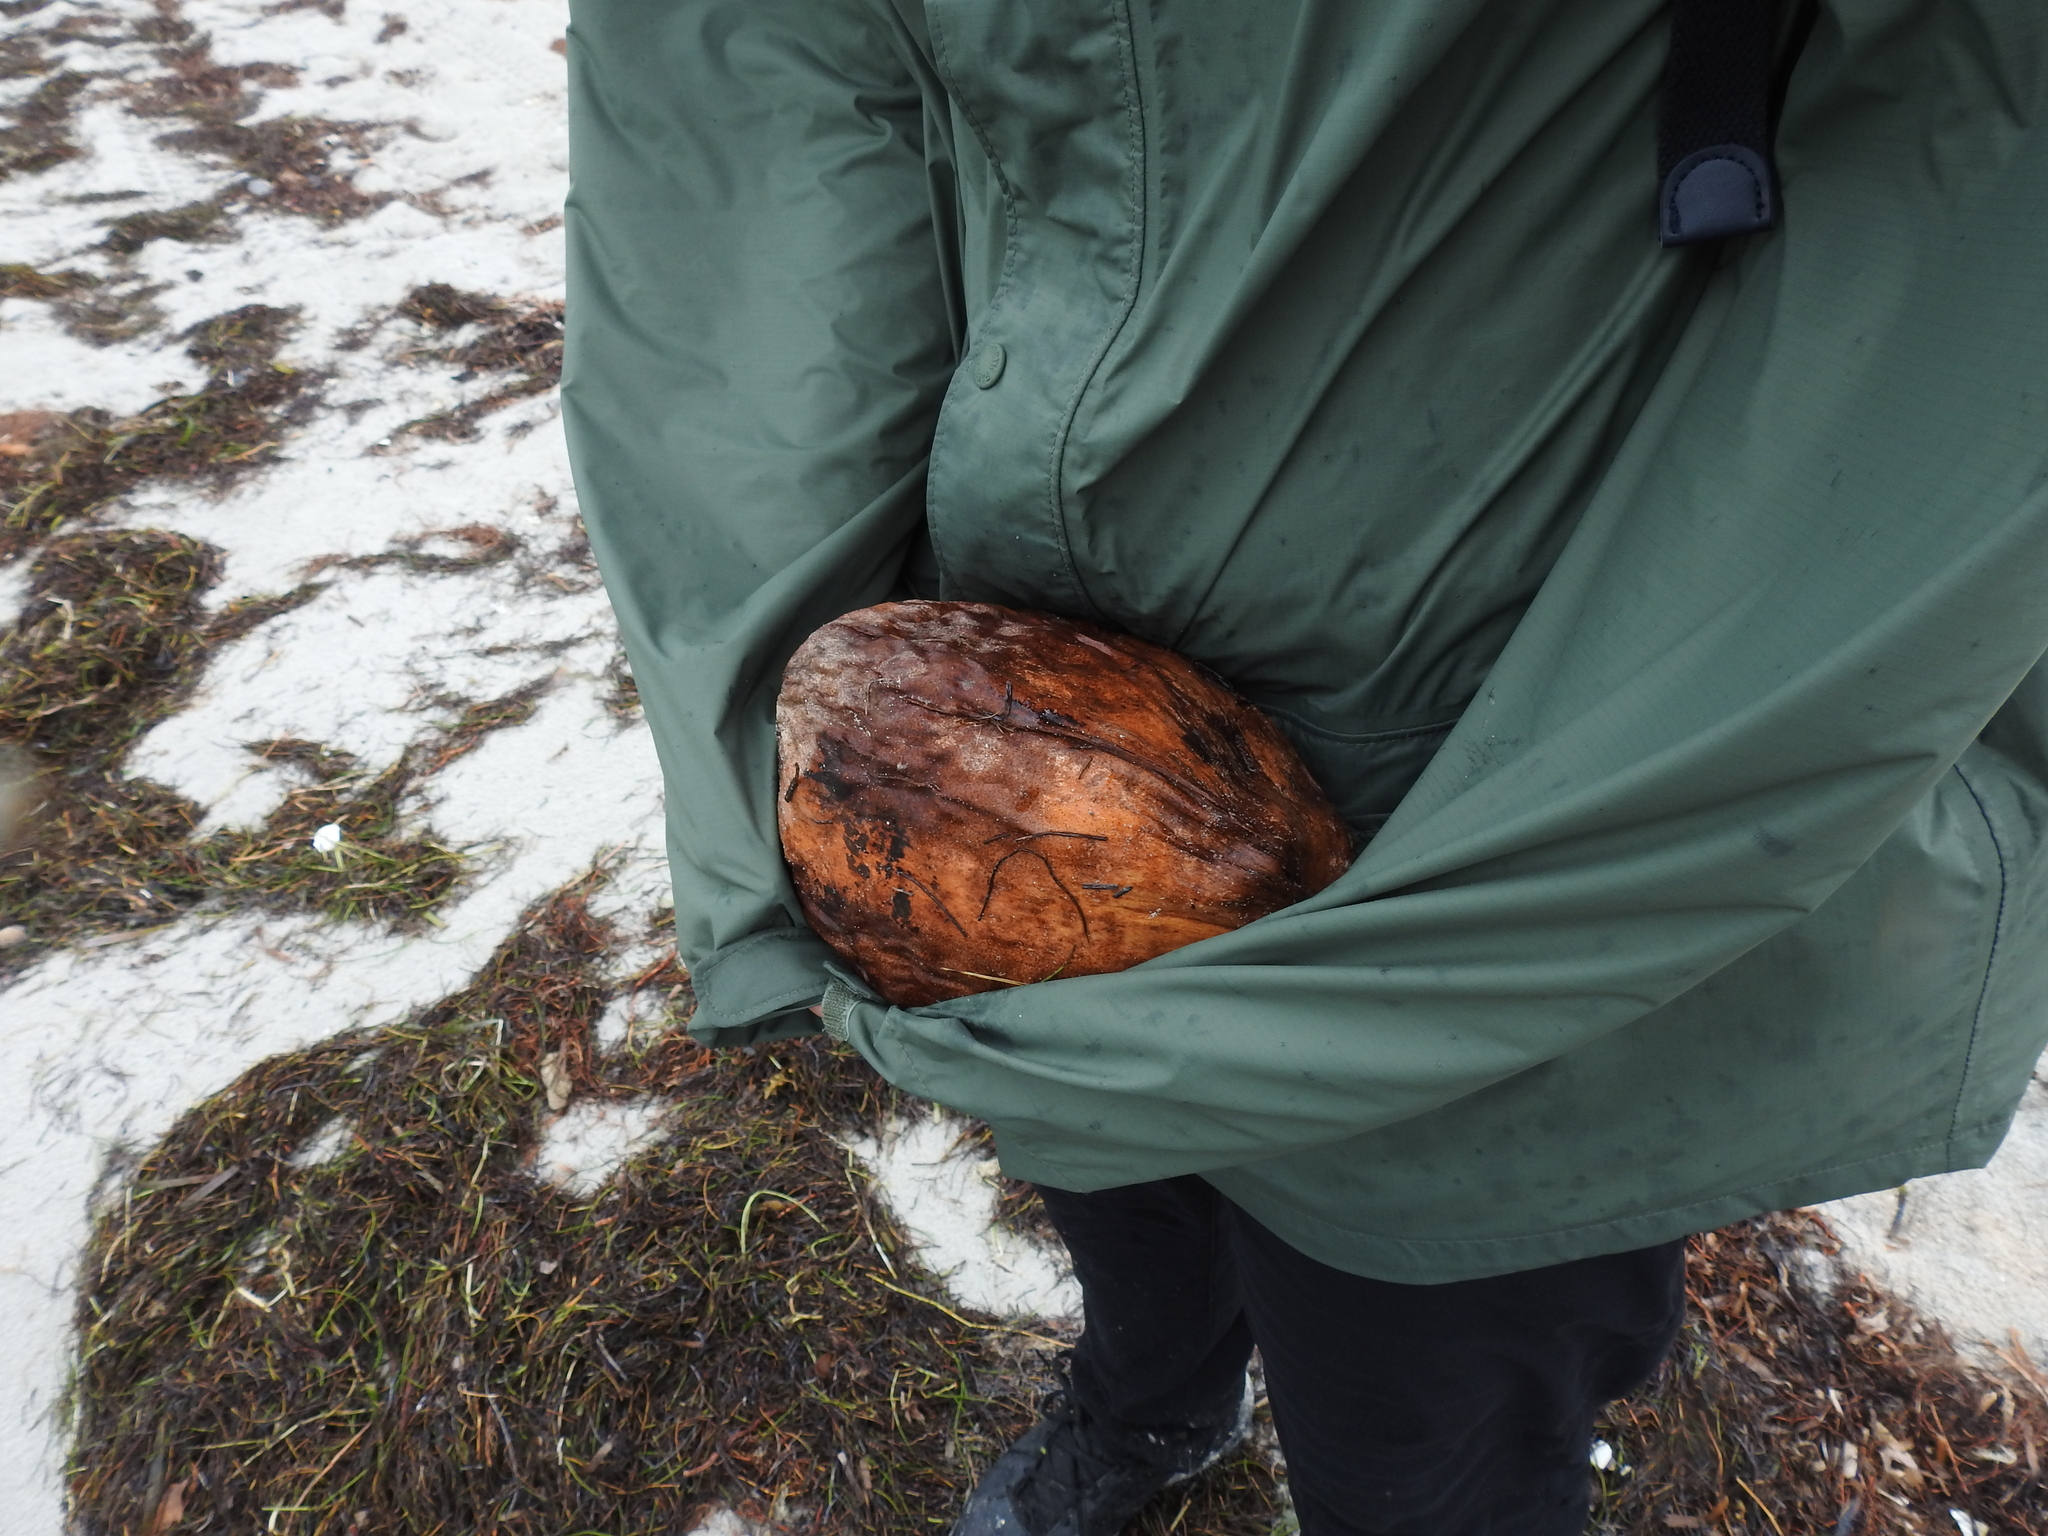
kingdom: Plantae
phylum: Tracheophyta
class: Liliopsida
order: Arecales
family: Arecaceae
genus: Cocos
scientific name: Cocos nucifera
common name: Coconut palm
